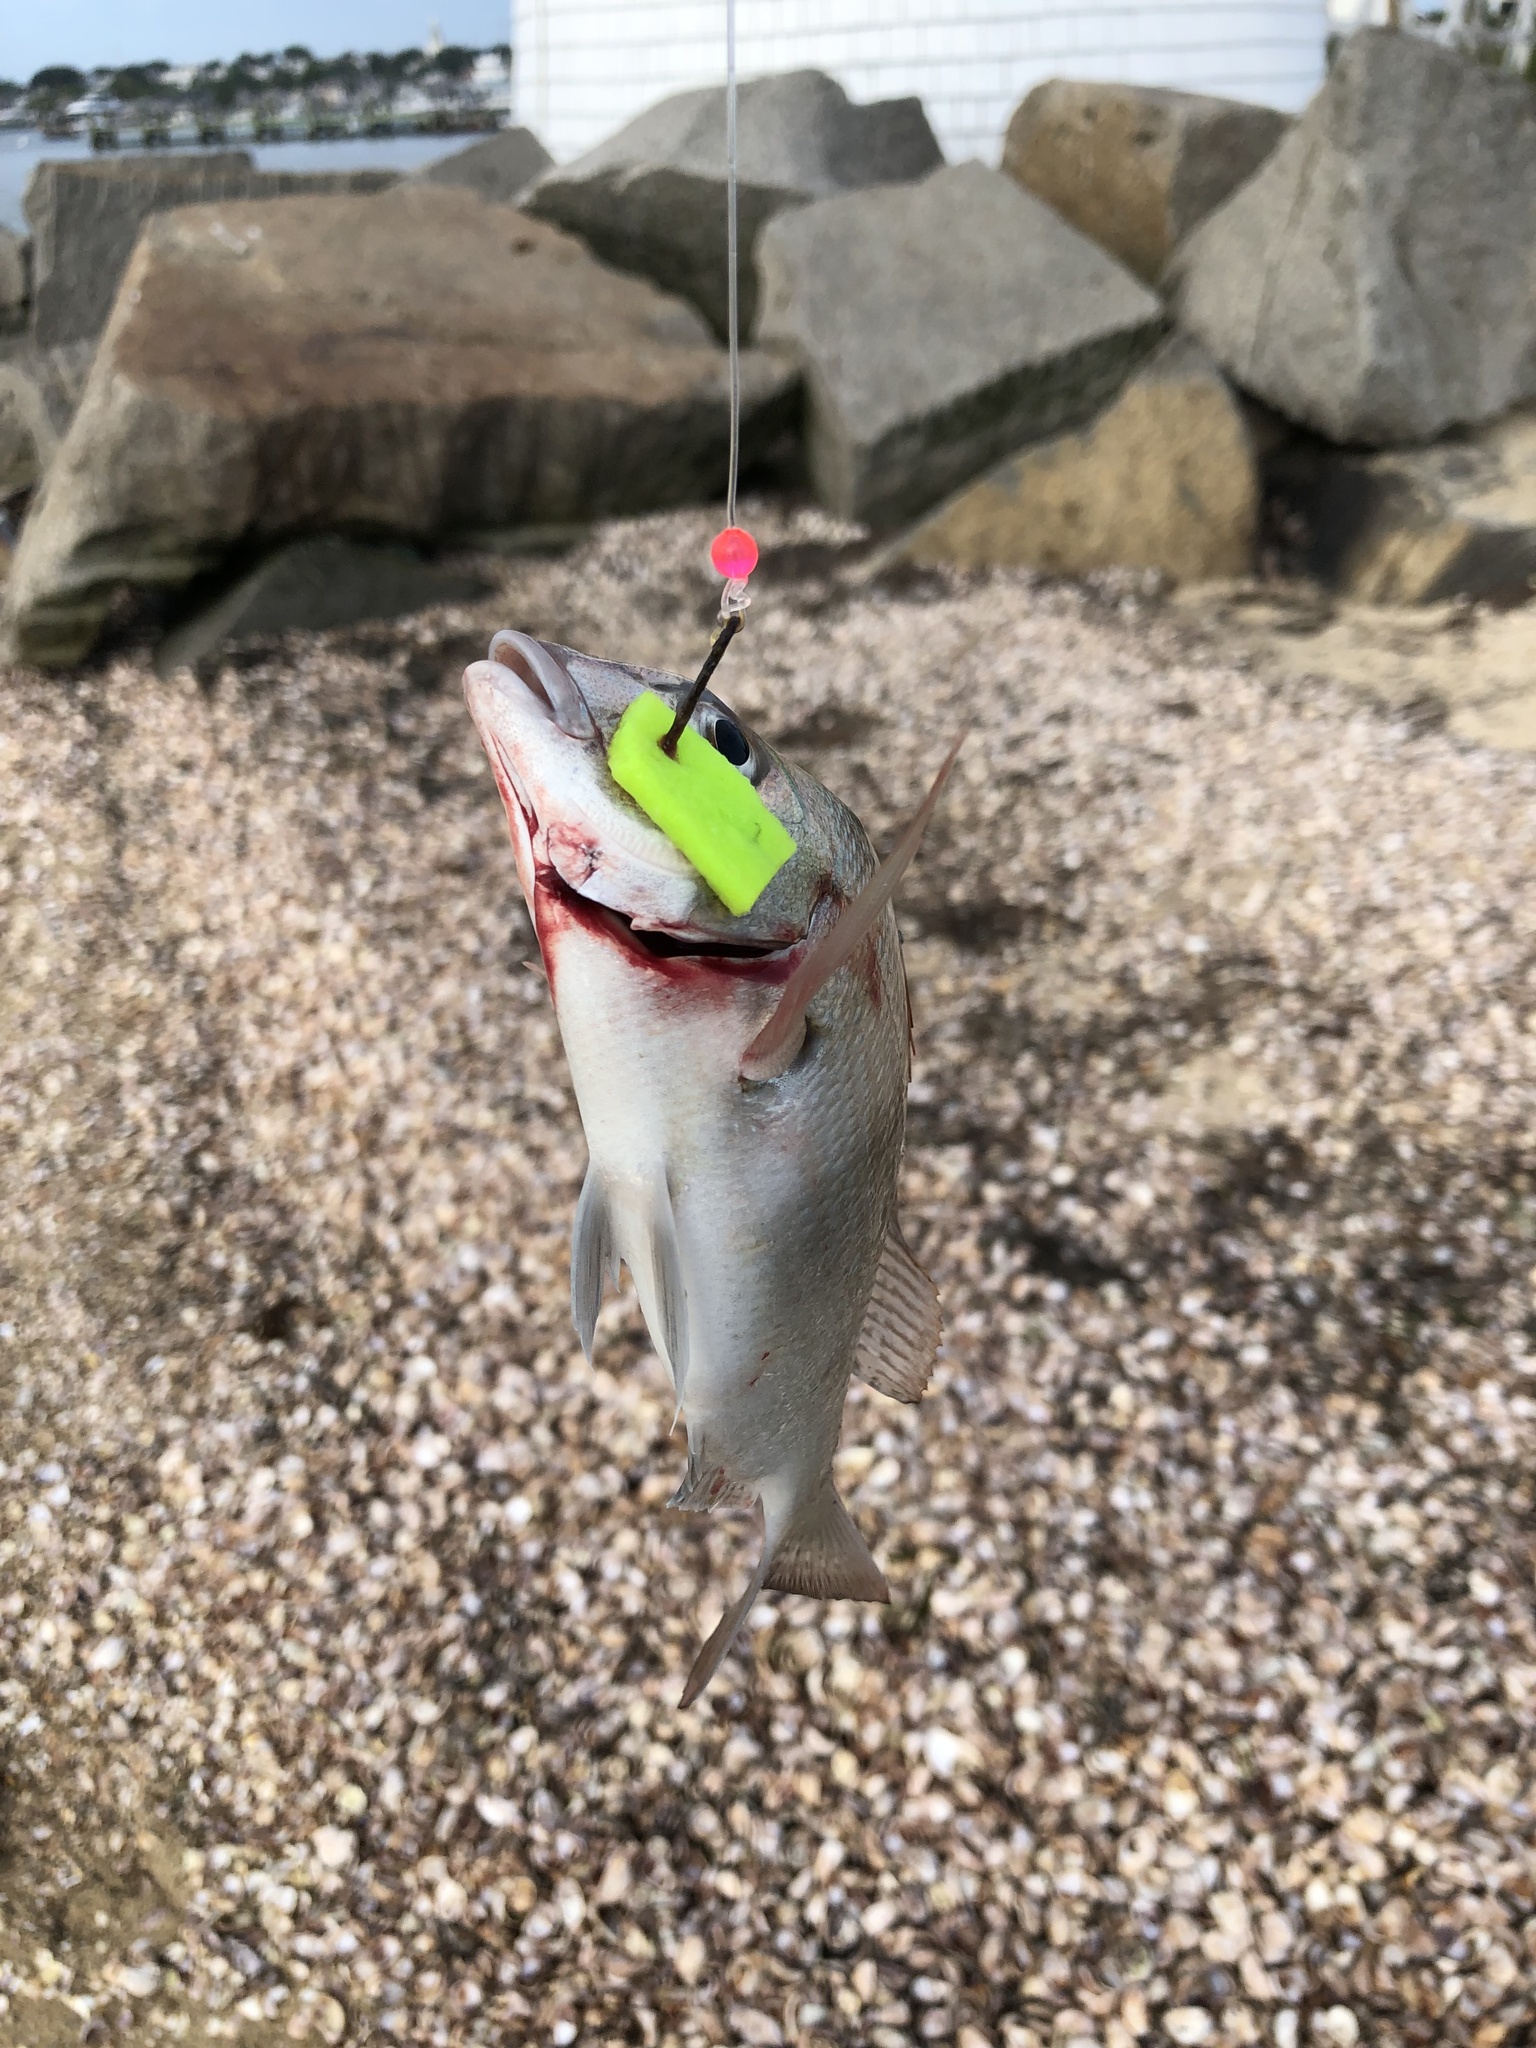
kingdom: Animalia
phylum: Chordata
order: Perciformes
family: Sparidae
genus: Stenotomus
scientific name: Stenotomus chrysops
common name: Scup
